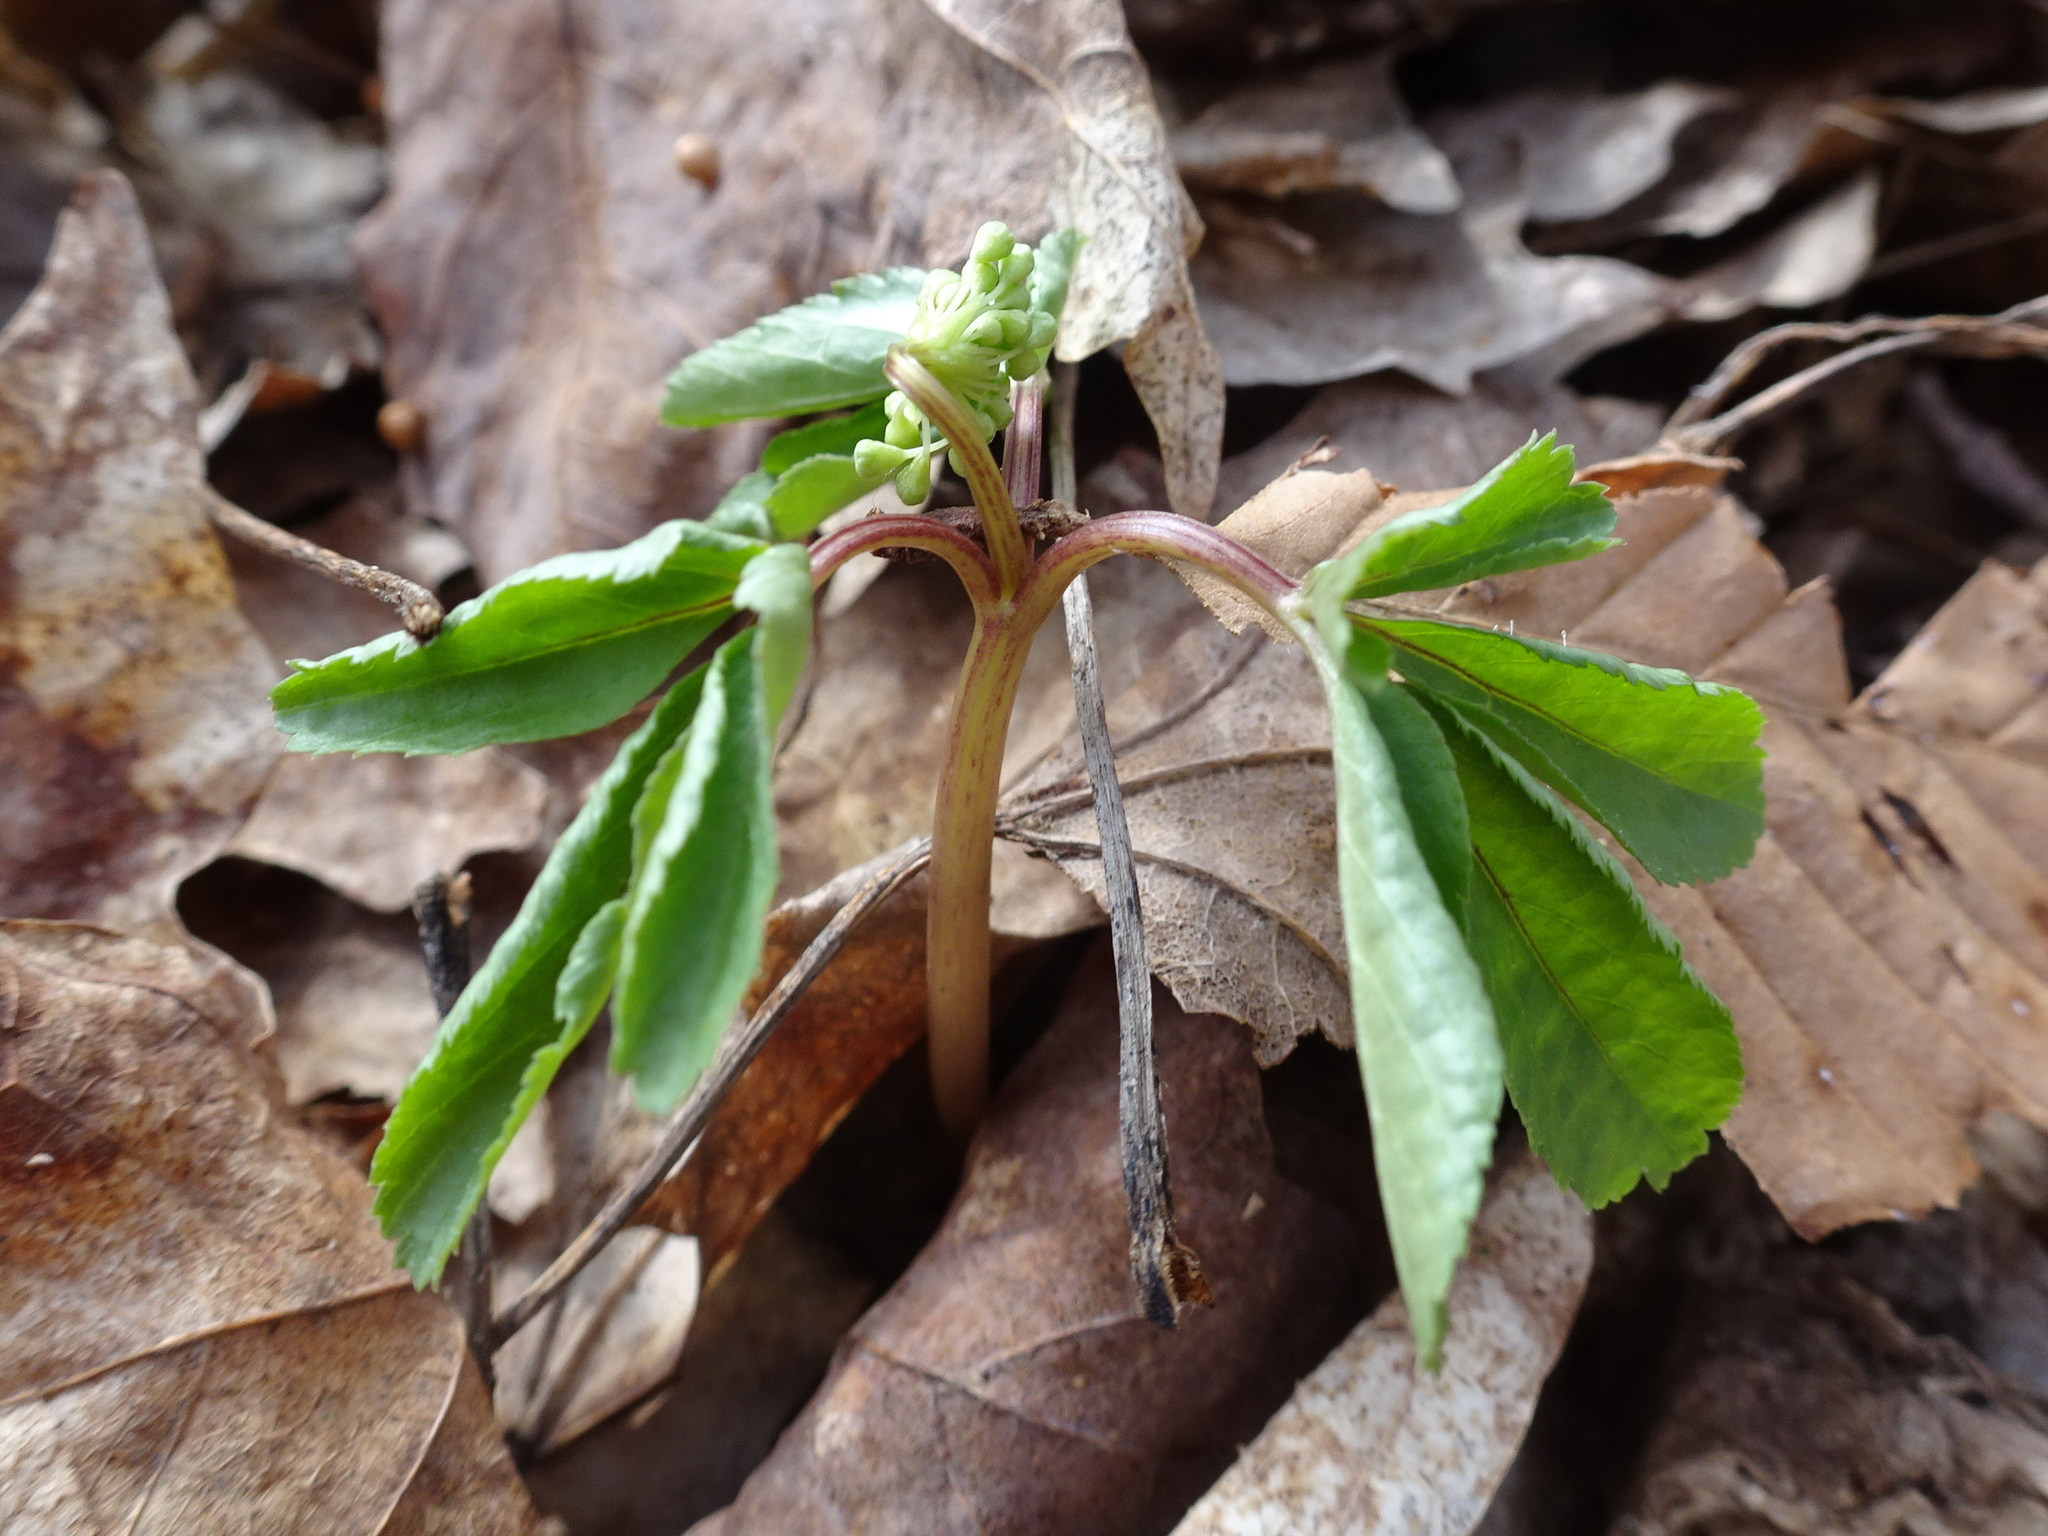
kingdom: Plantae
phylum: Tracheophyta
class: Magnoliopsida
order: Apiales
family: Araliaceae
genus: Panax
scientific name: Panax trifolius
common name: Dwarf ginseng
